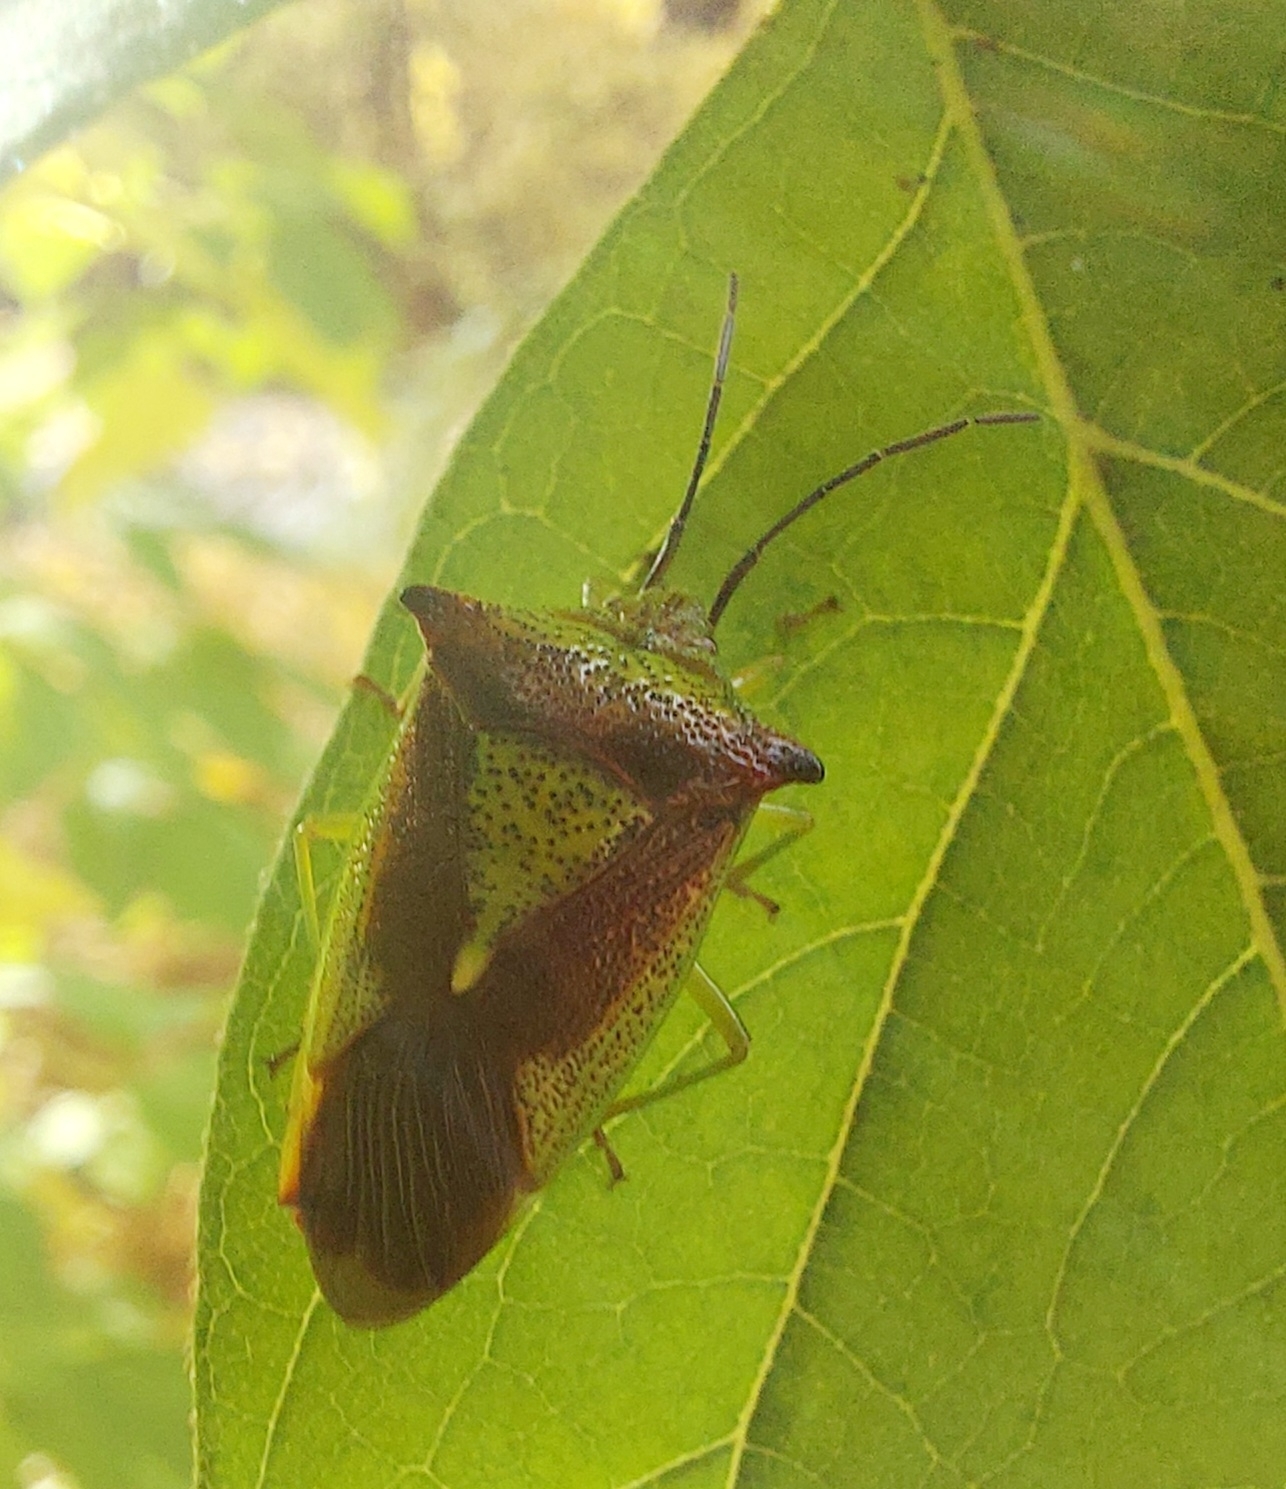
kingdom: Animalia
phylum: Arthropoda
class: Insecta
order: Hemiptera
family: Acanthosomatidae
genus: Acanthosoma
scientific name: Acanthosoma haemorrhoidale
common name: Hawthorn shieldbug
